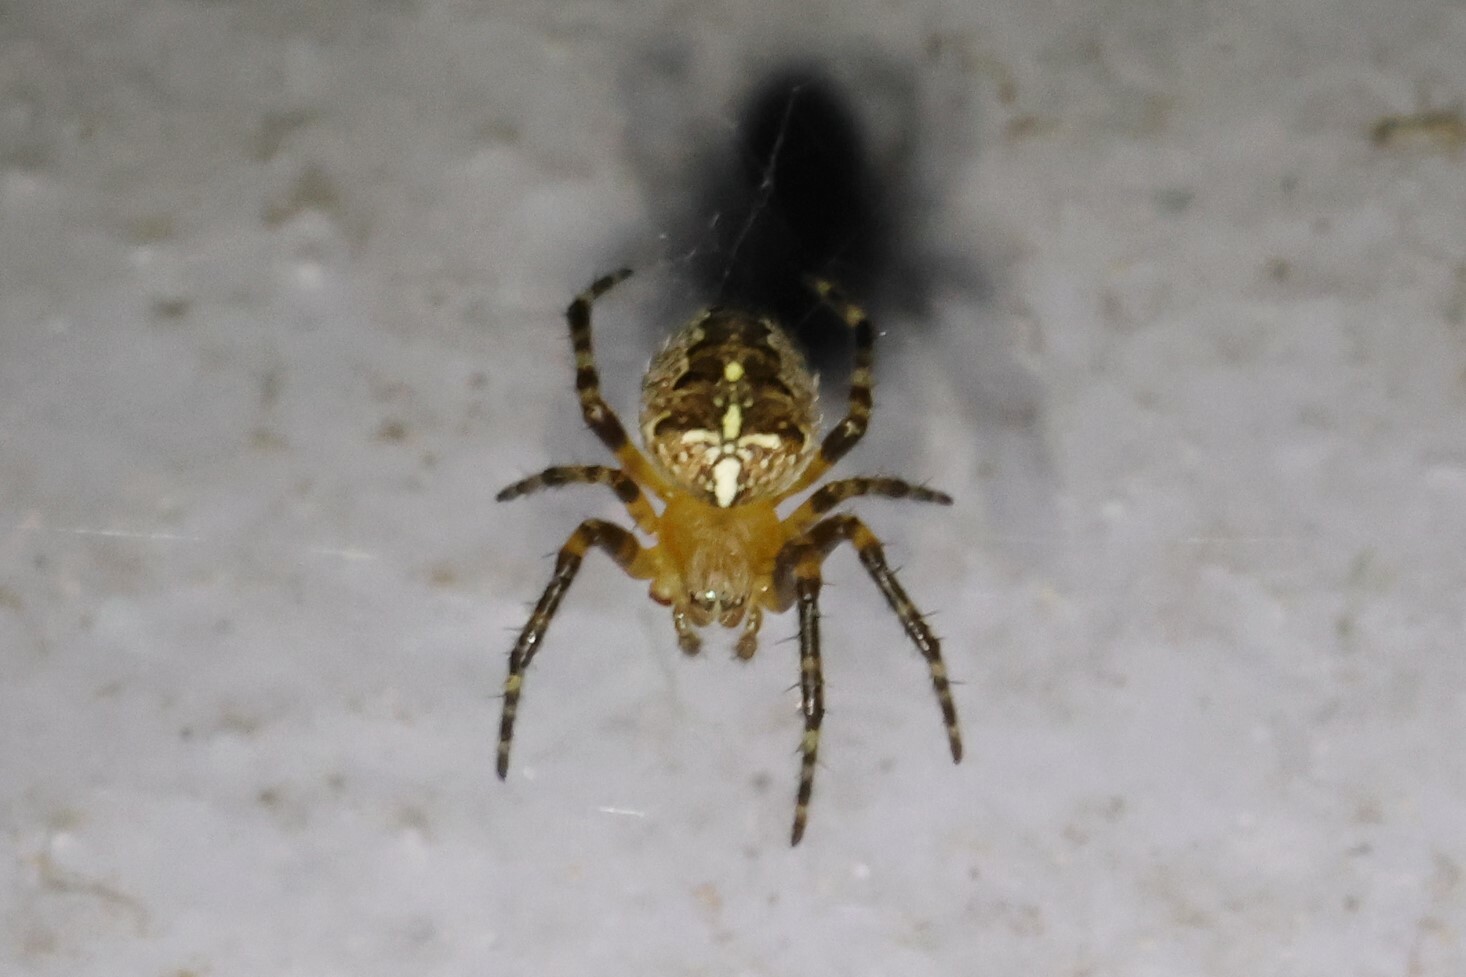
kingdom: Animalia
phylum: Arthropoda
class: Arachnida
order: Araneae
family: Araneidae
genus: Araneus
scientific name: Araneus diadematus
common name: Cross orbweaver
